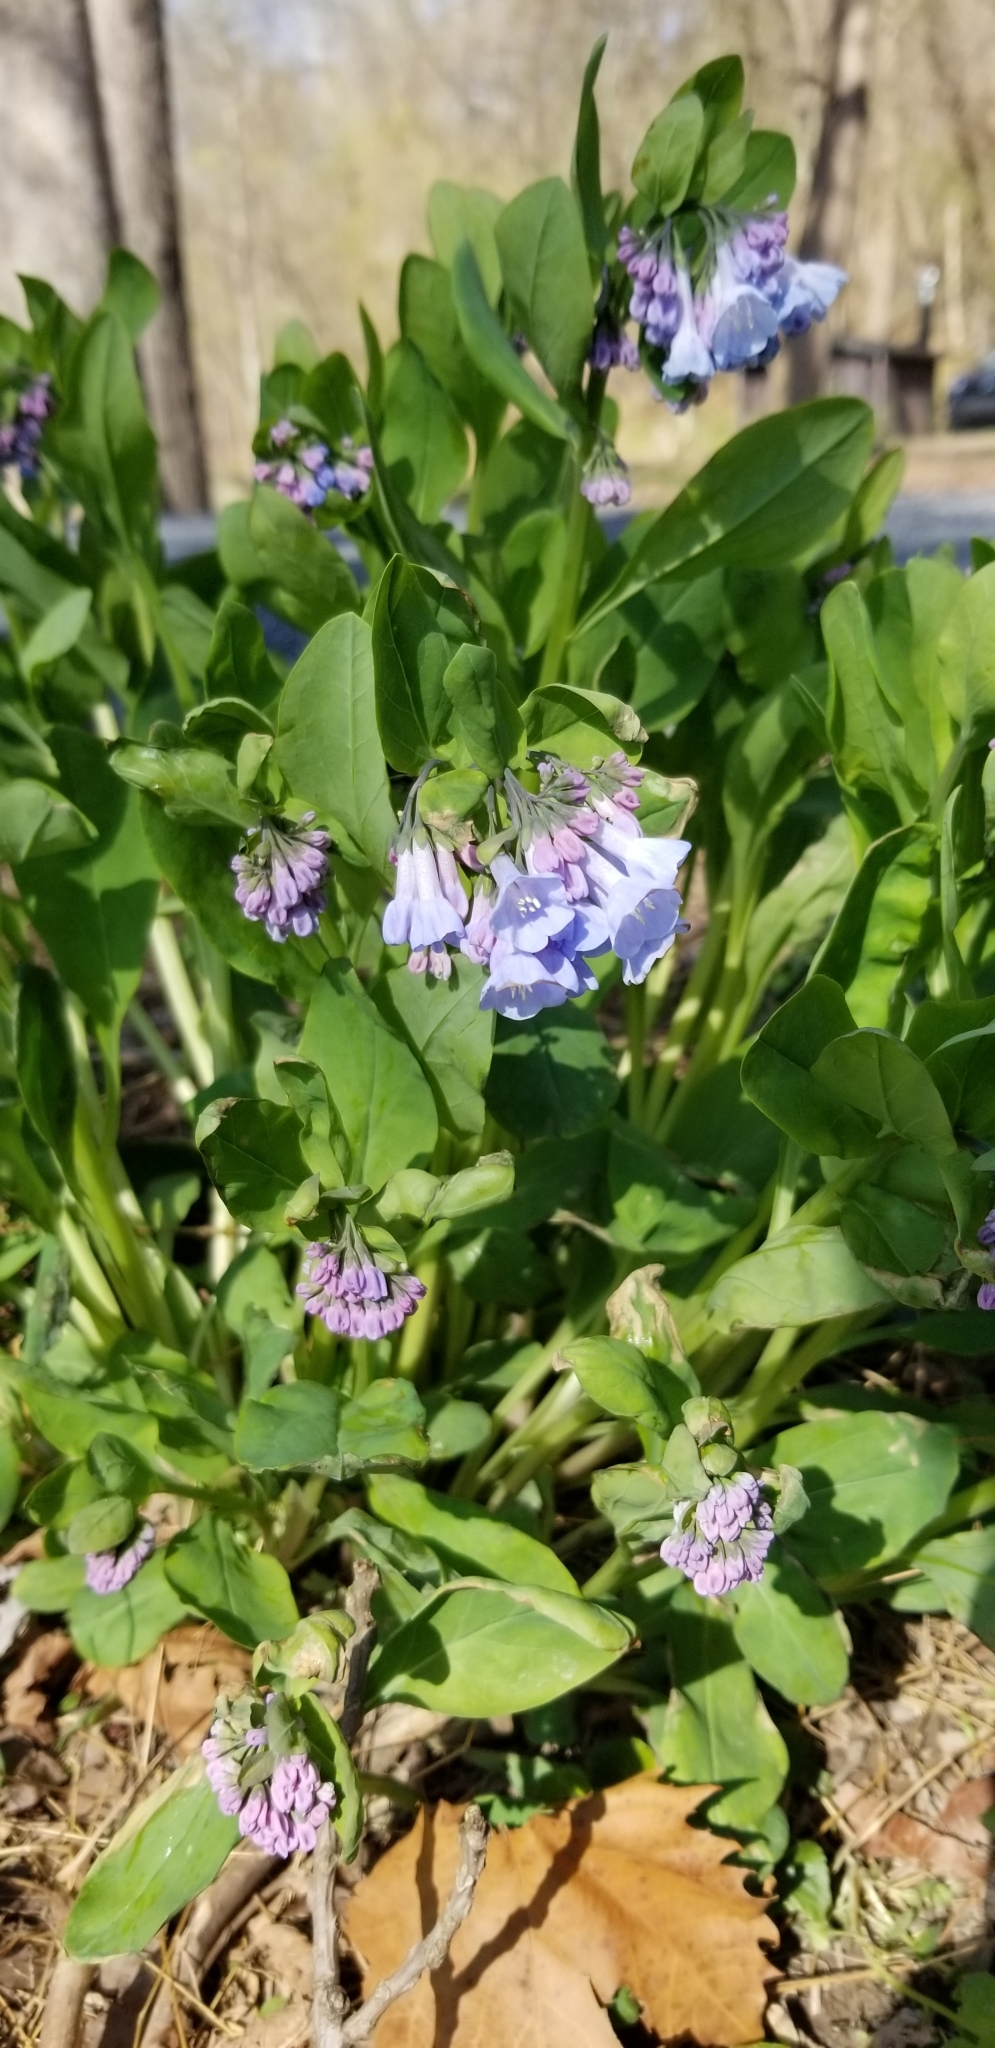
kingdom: Plantae
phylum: Tracheophyta
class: Magnoliopsida
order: Boraginales
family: Boraginaceae
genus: Mertensia
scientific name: Mertensia virginica
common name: Virginia bluebells
